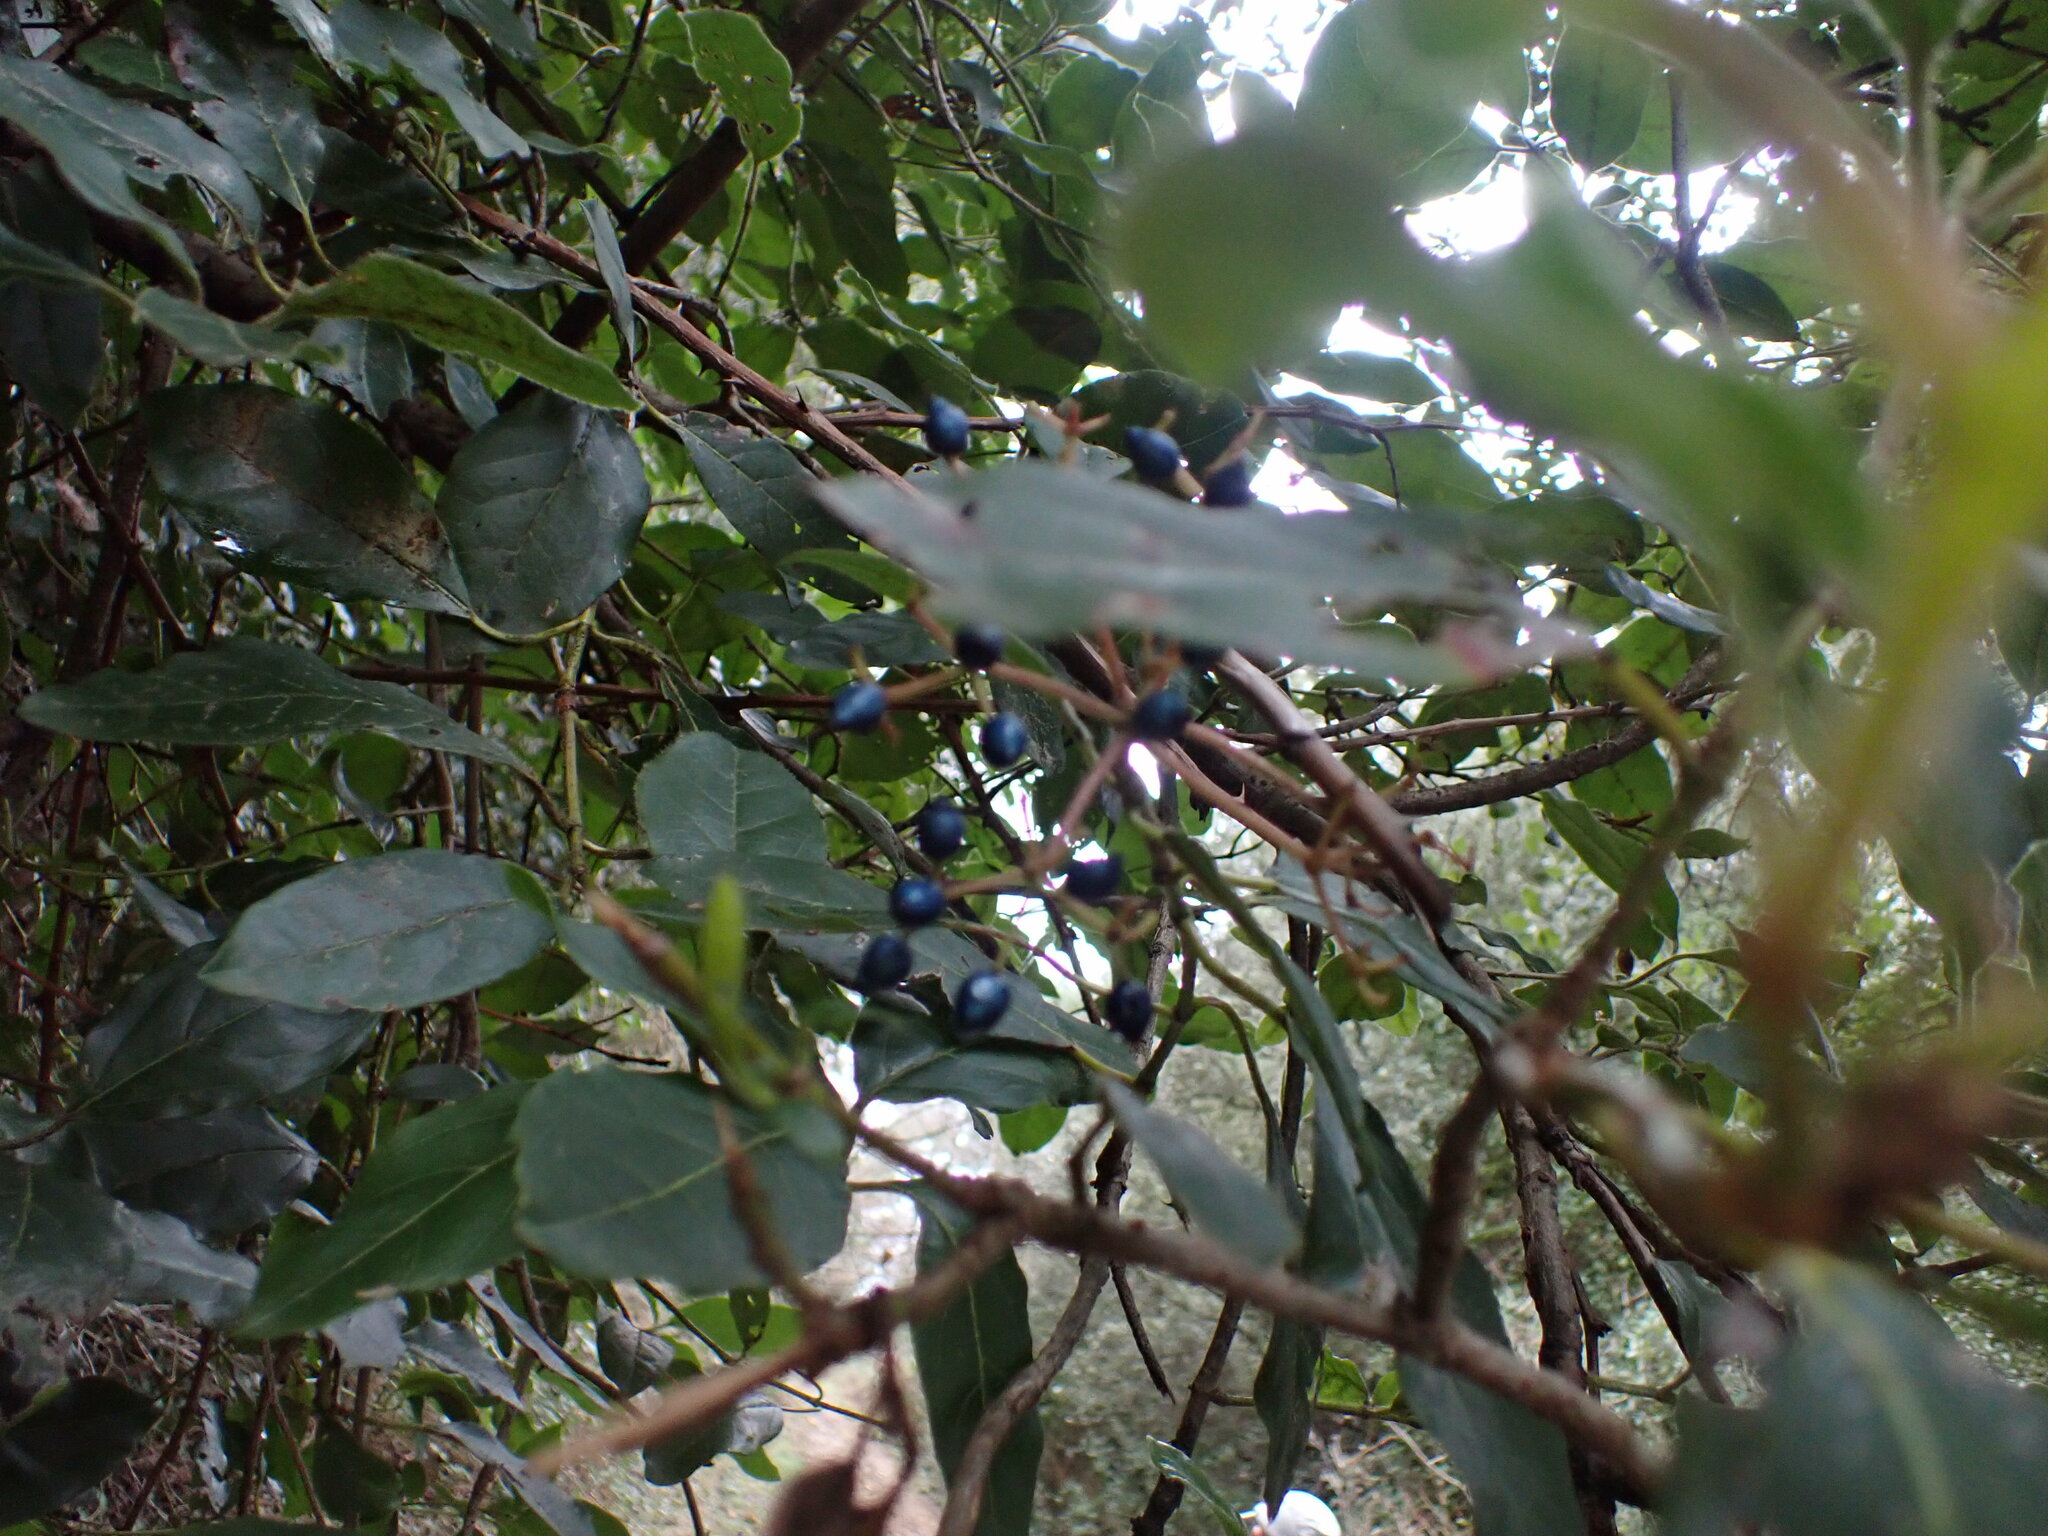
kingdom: Plantae
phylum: Tracheophyta
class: Magnoliopsida
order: Dipsacales
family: Viburnaceae
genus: Viburnum
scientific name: Viburnum tinus
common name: Laurustinus
